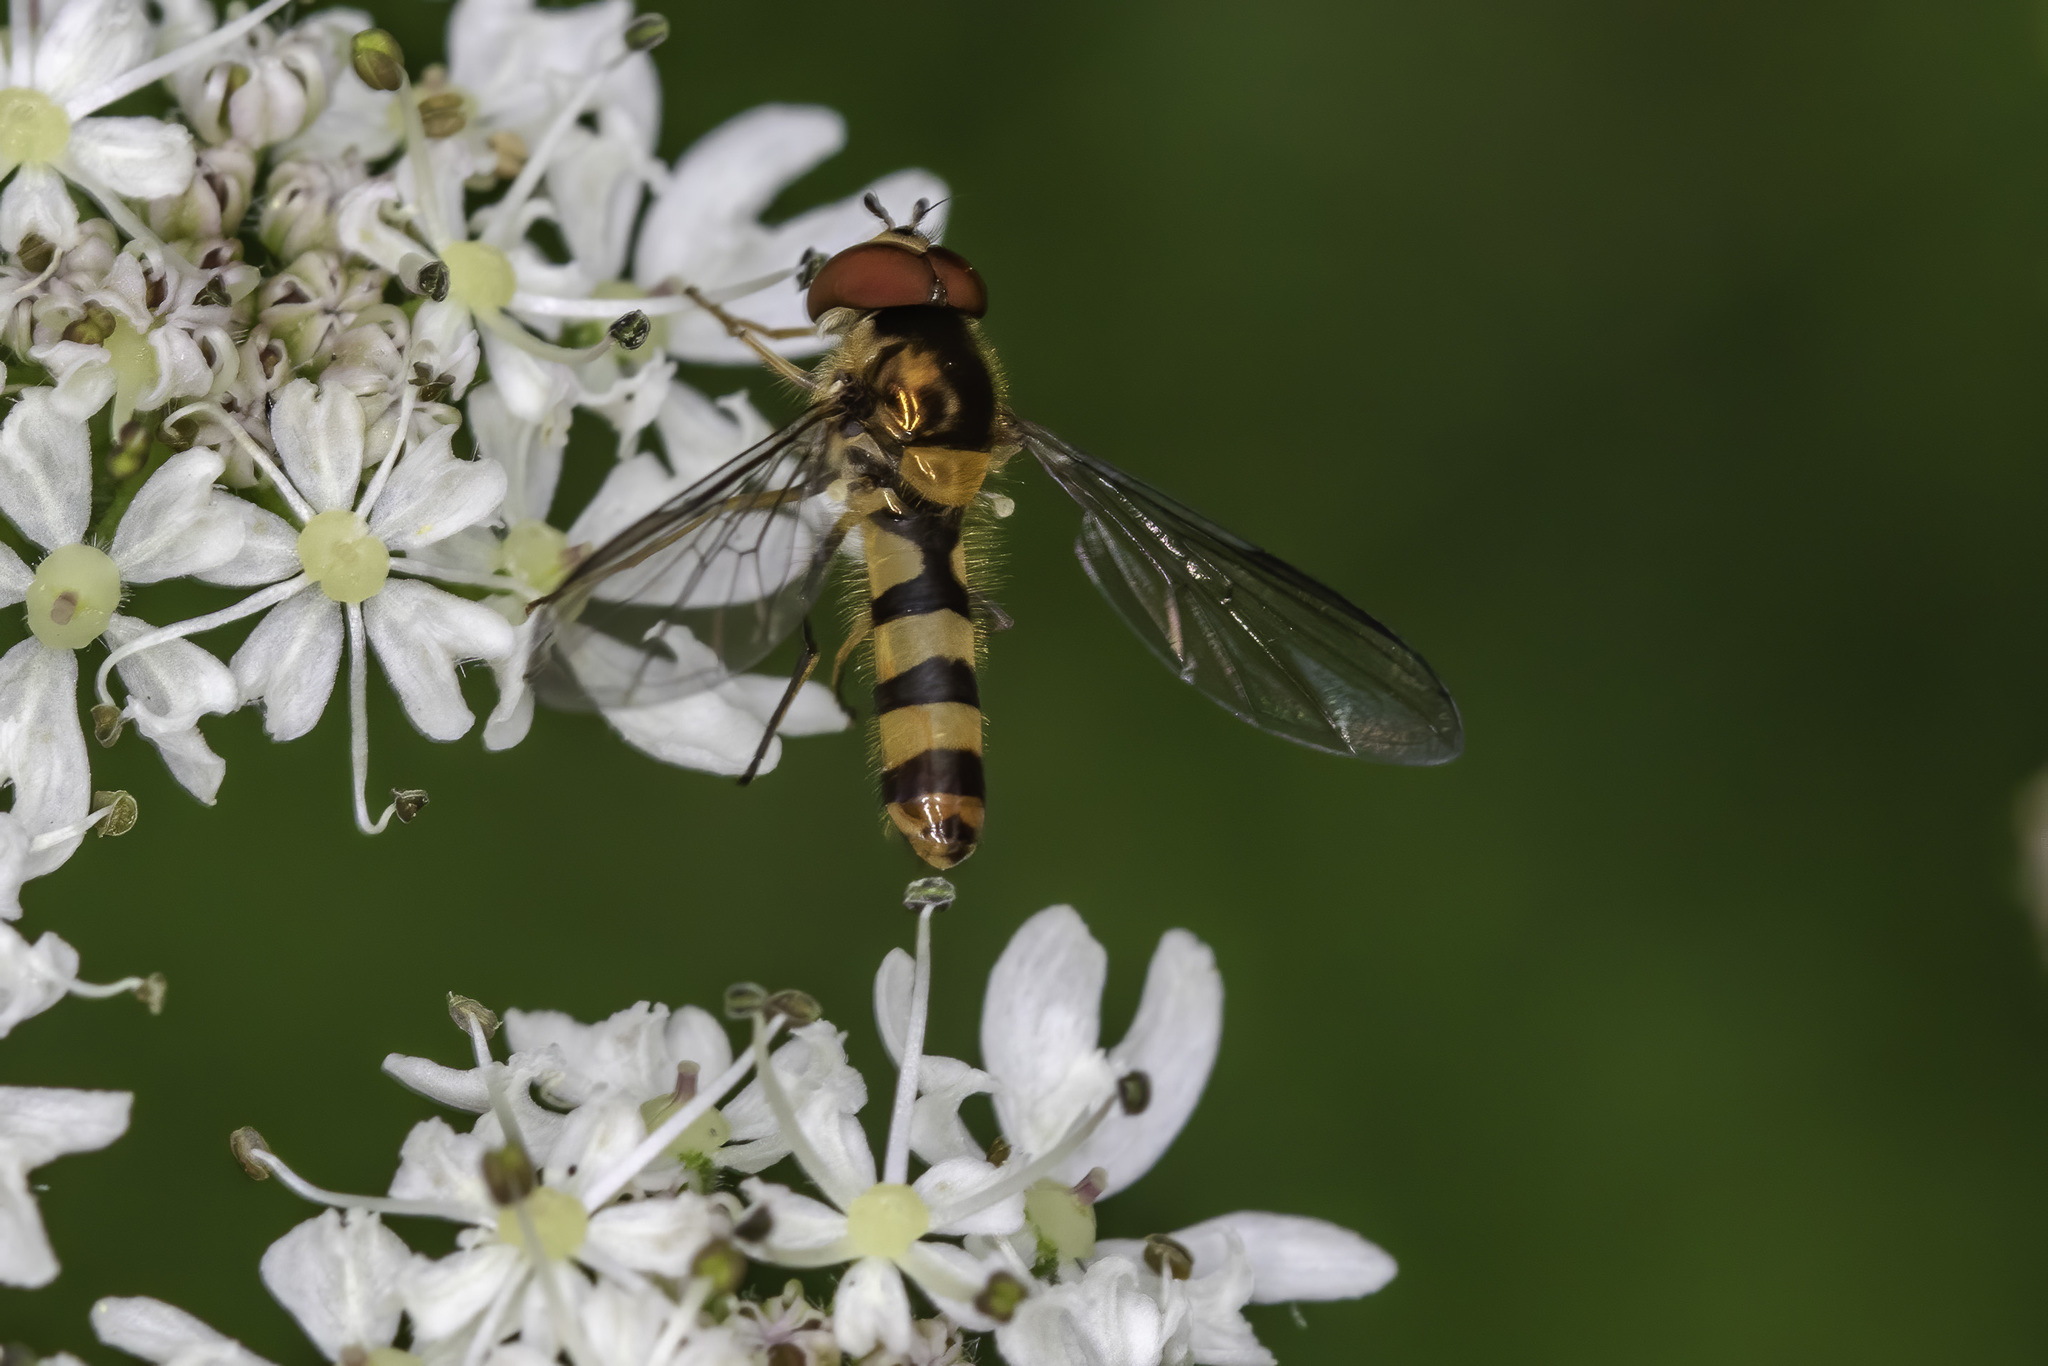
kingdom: Animalia
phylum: Arthropoda
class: Insecta
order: Diptera
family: Syrphidae
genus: Meliscaeva
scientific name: Meliscaeva cinctella
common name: American thintail fly
